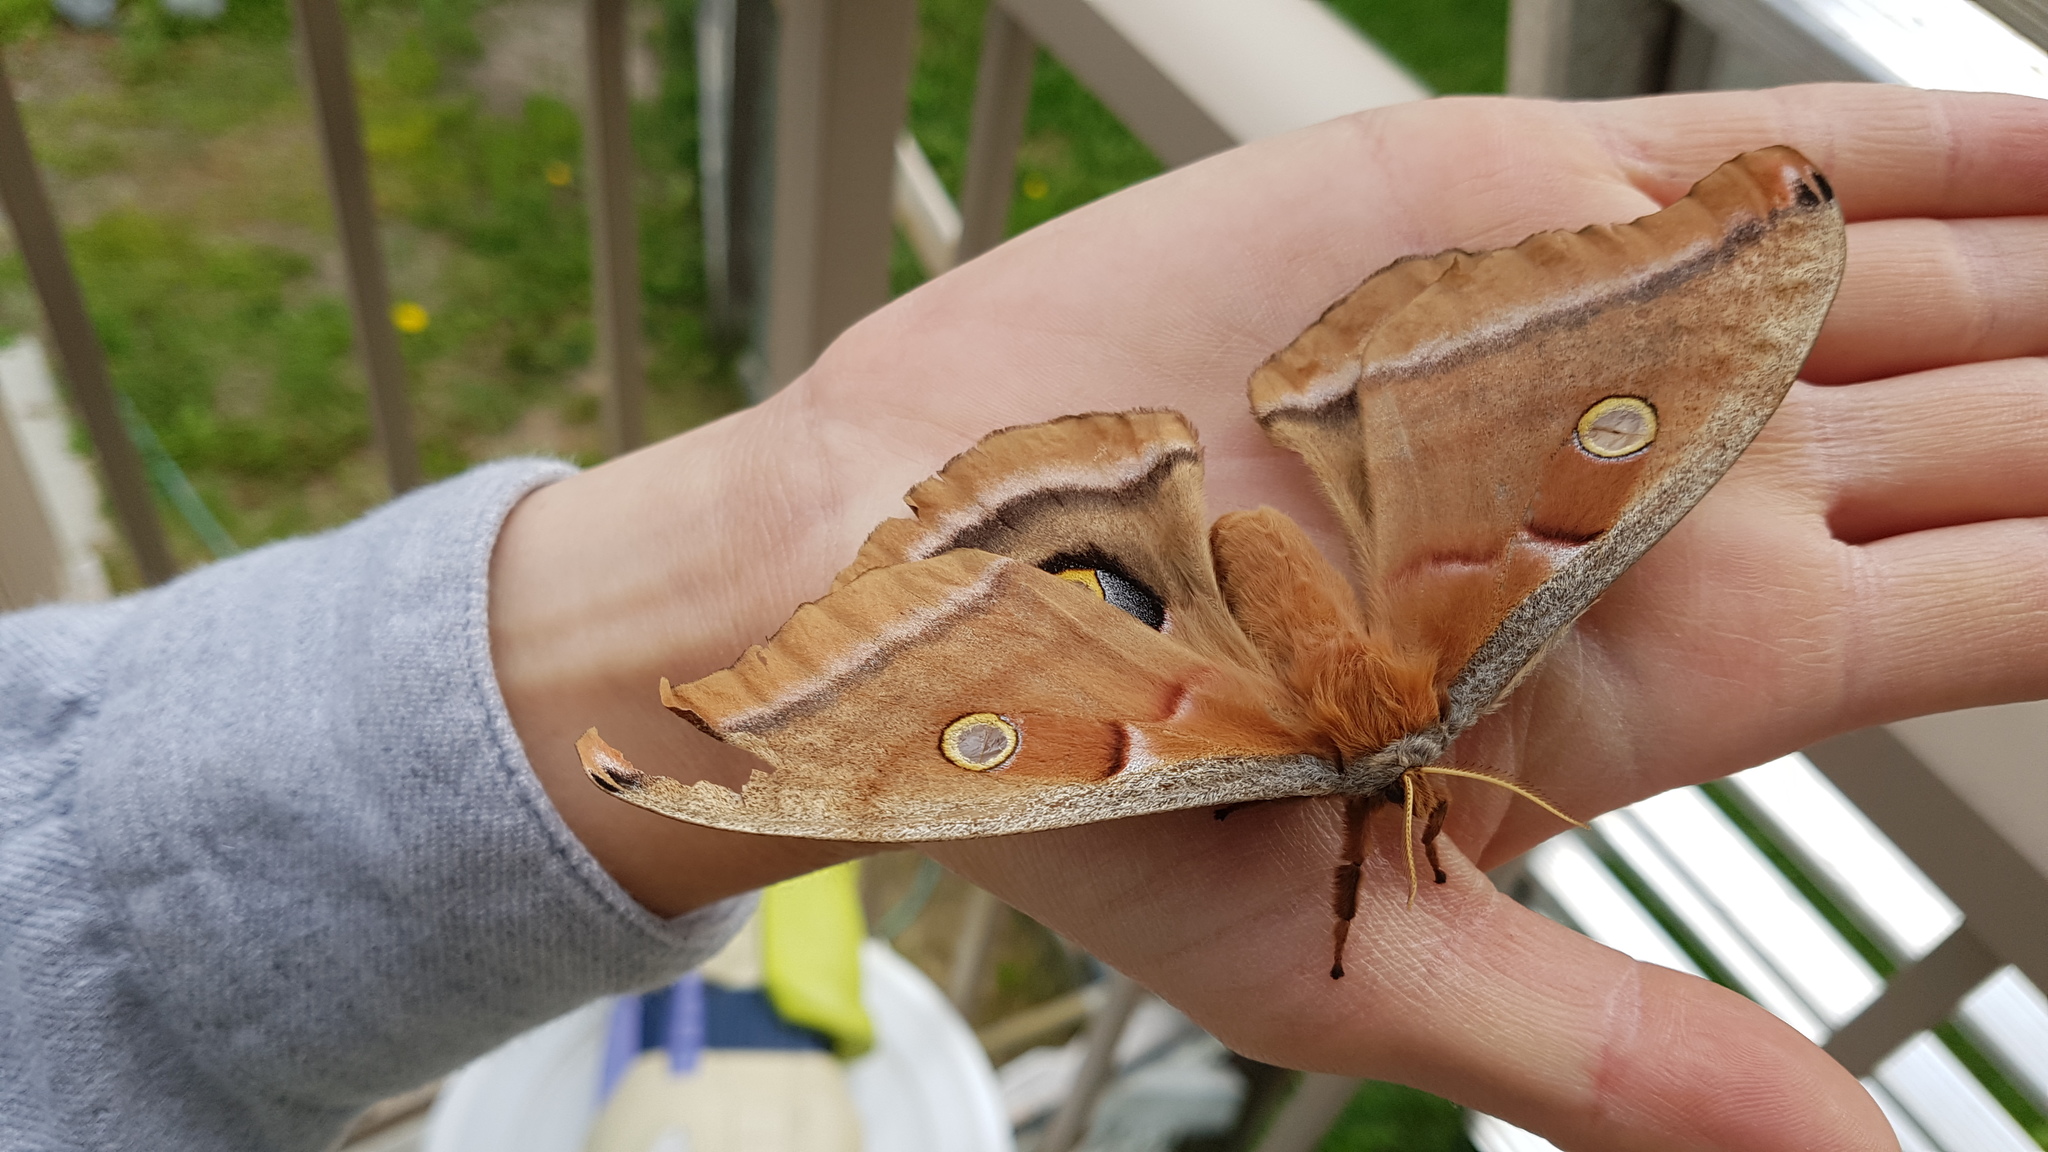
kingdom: Animalia
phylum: Arthropoda
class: Insecta
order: Lepidoptera
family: Saturniidae
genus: Antheraea
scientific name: Antheraea polyphemus
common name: Polyphemus moth
